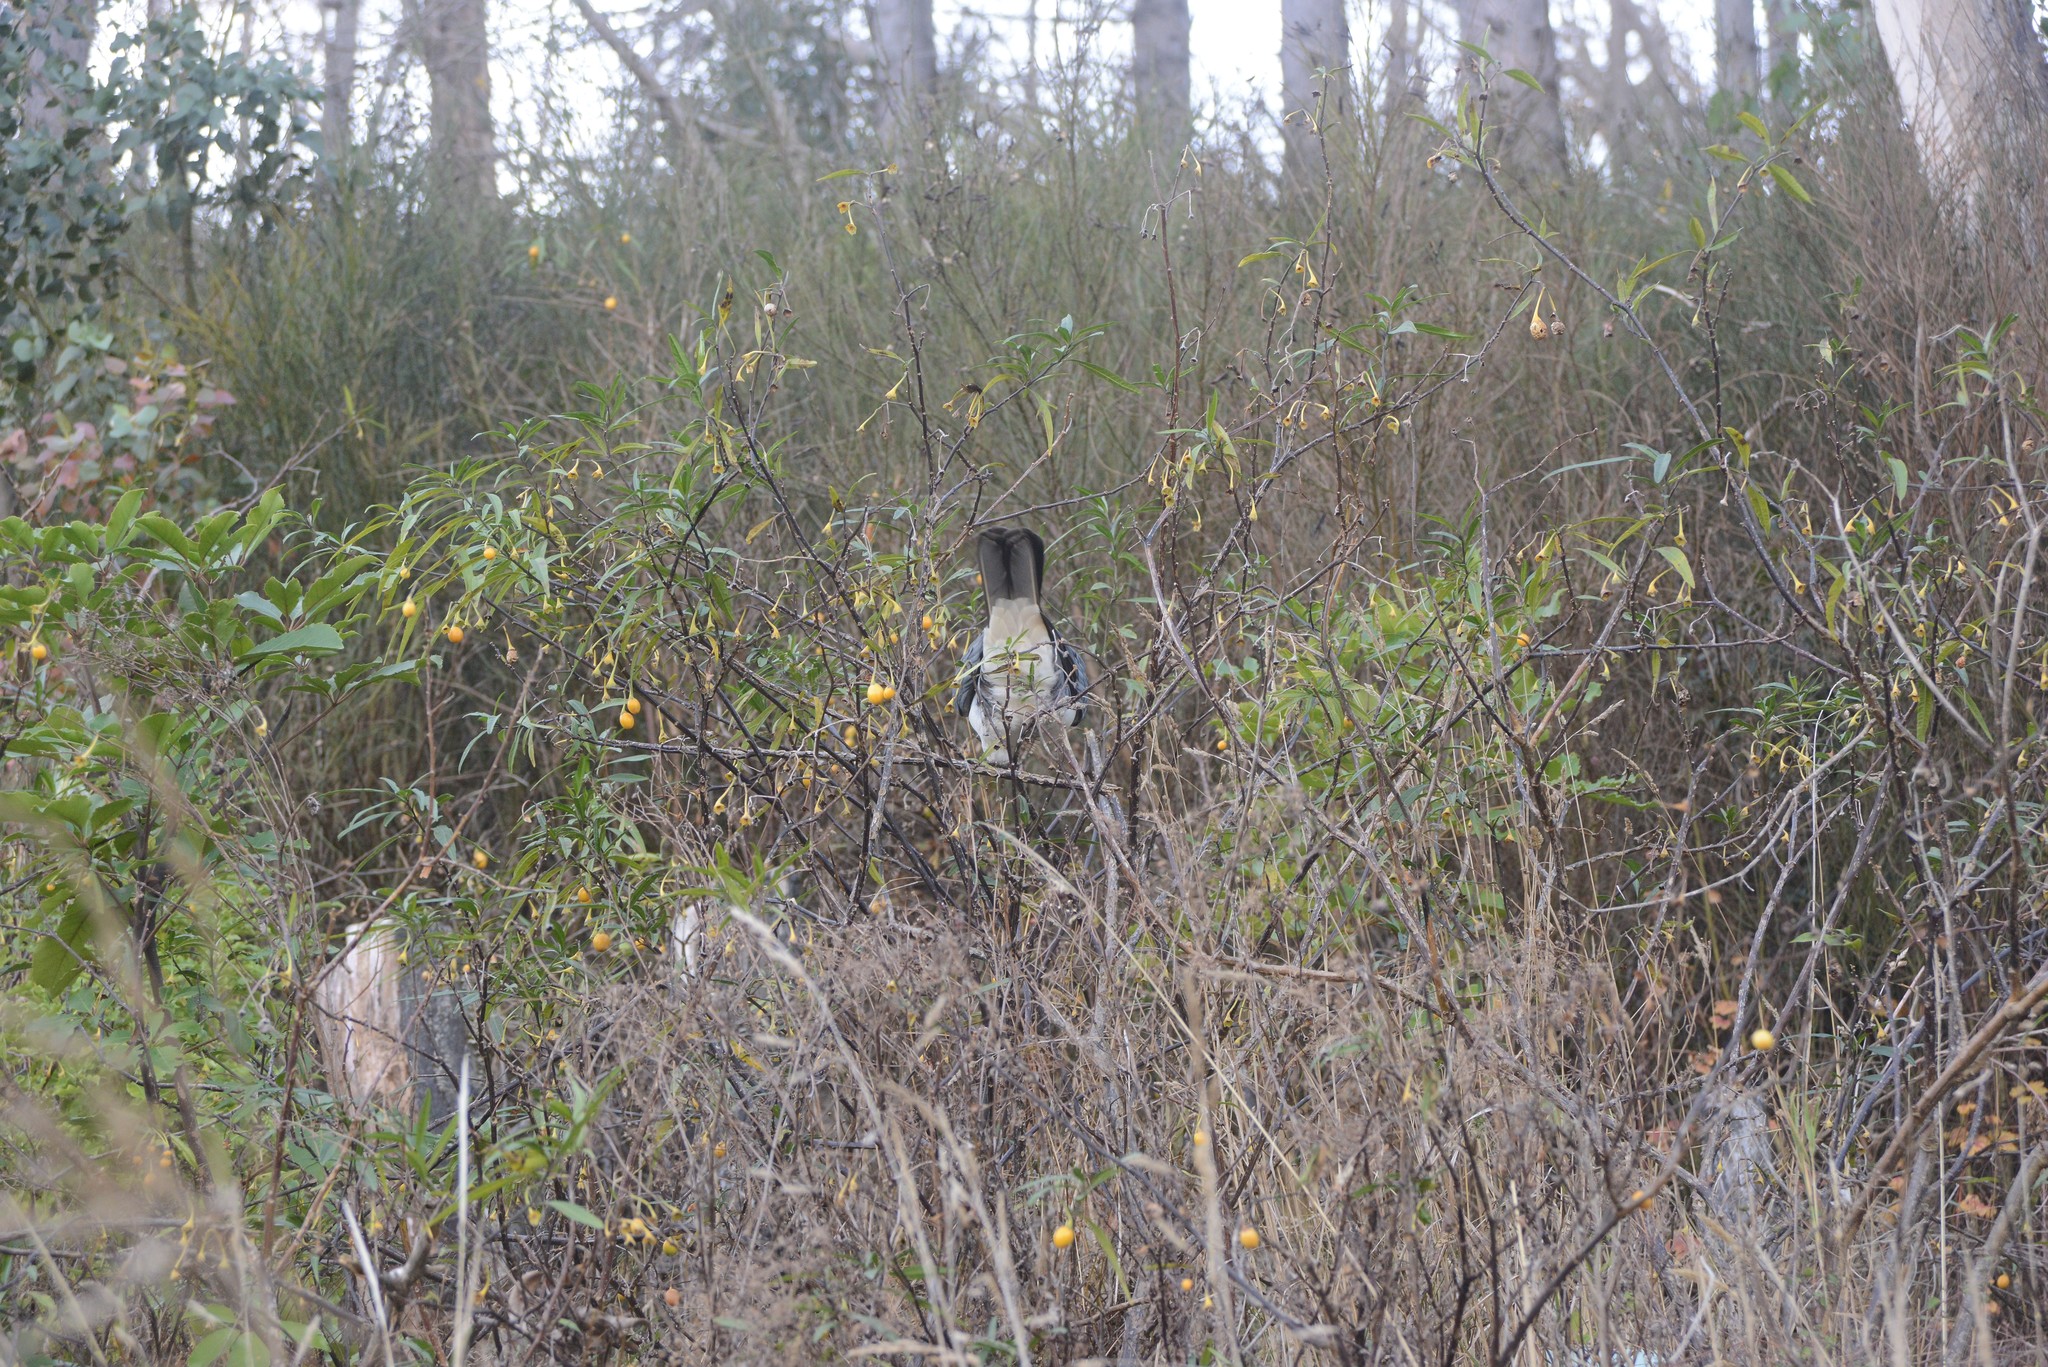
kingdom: Animalia
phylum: Chordata
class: Aves
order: Columbiformes
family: Columbidae
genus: Hemiphaga
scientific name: Hemiphaga novaeseelandiae
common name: New zealand pigeon
